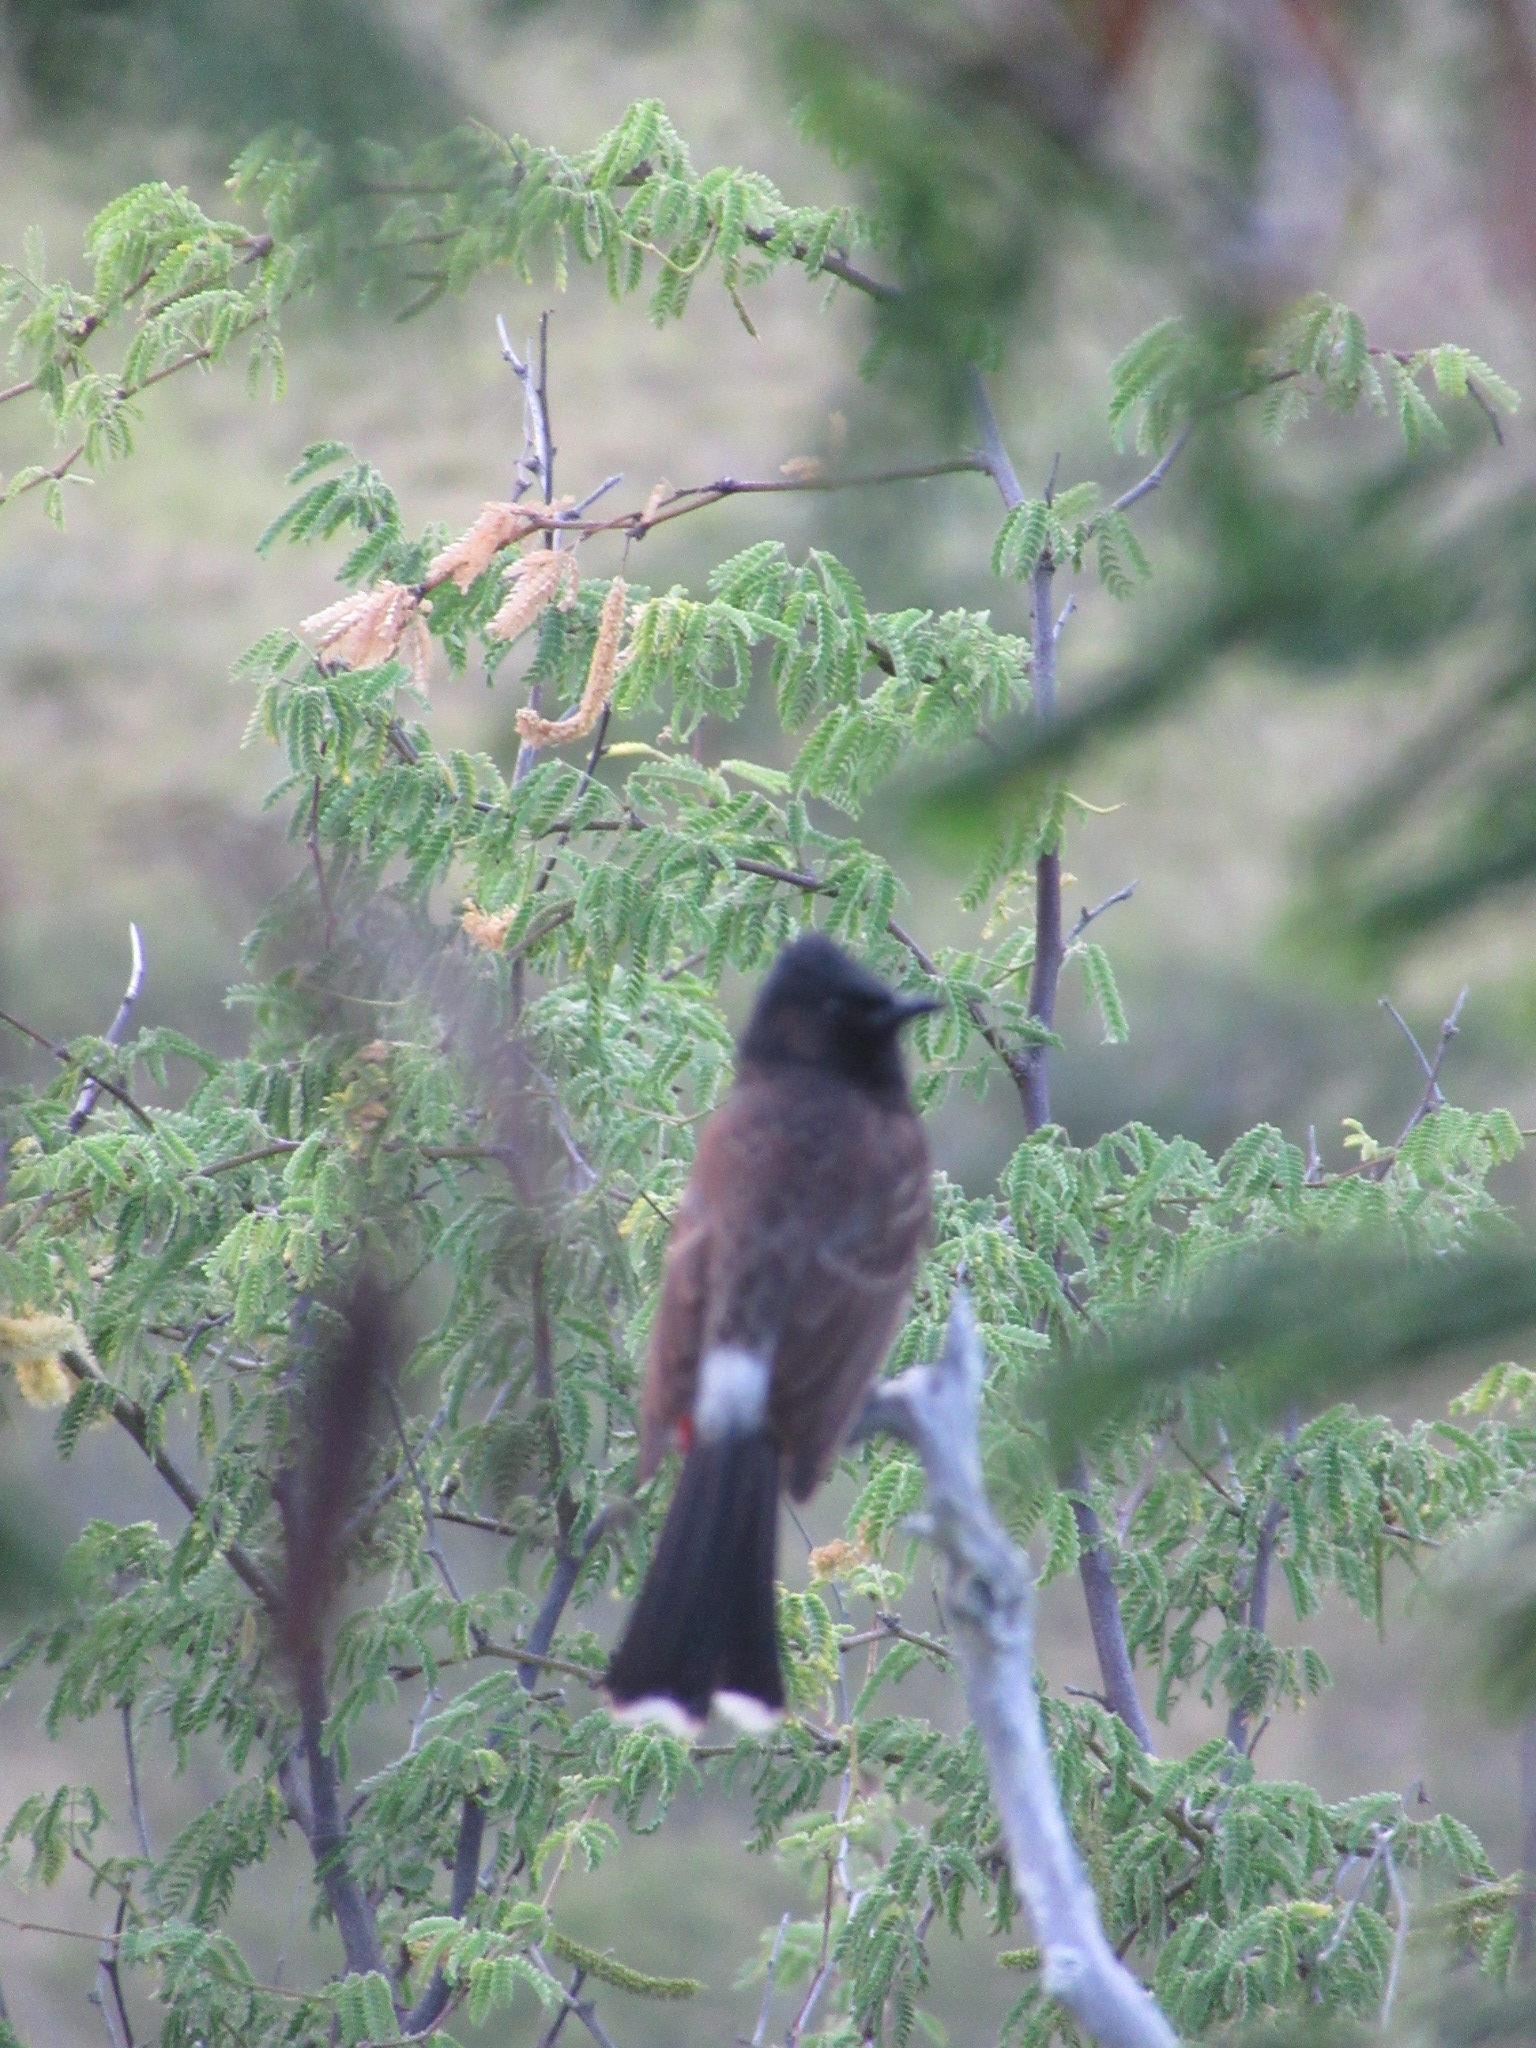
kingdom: Animalia
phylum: Chordata
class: Aves
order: Passeriformes
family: Pycnonotidae
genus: Pycnonotus
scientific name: Pycnonotus cafer
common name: Red-vented bulbul
